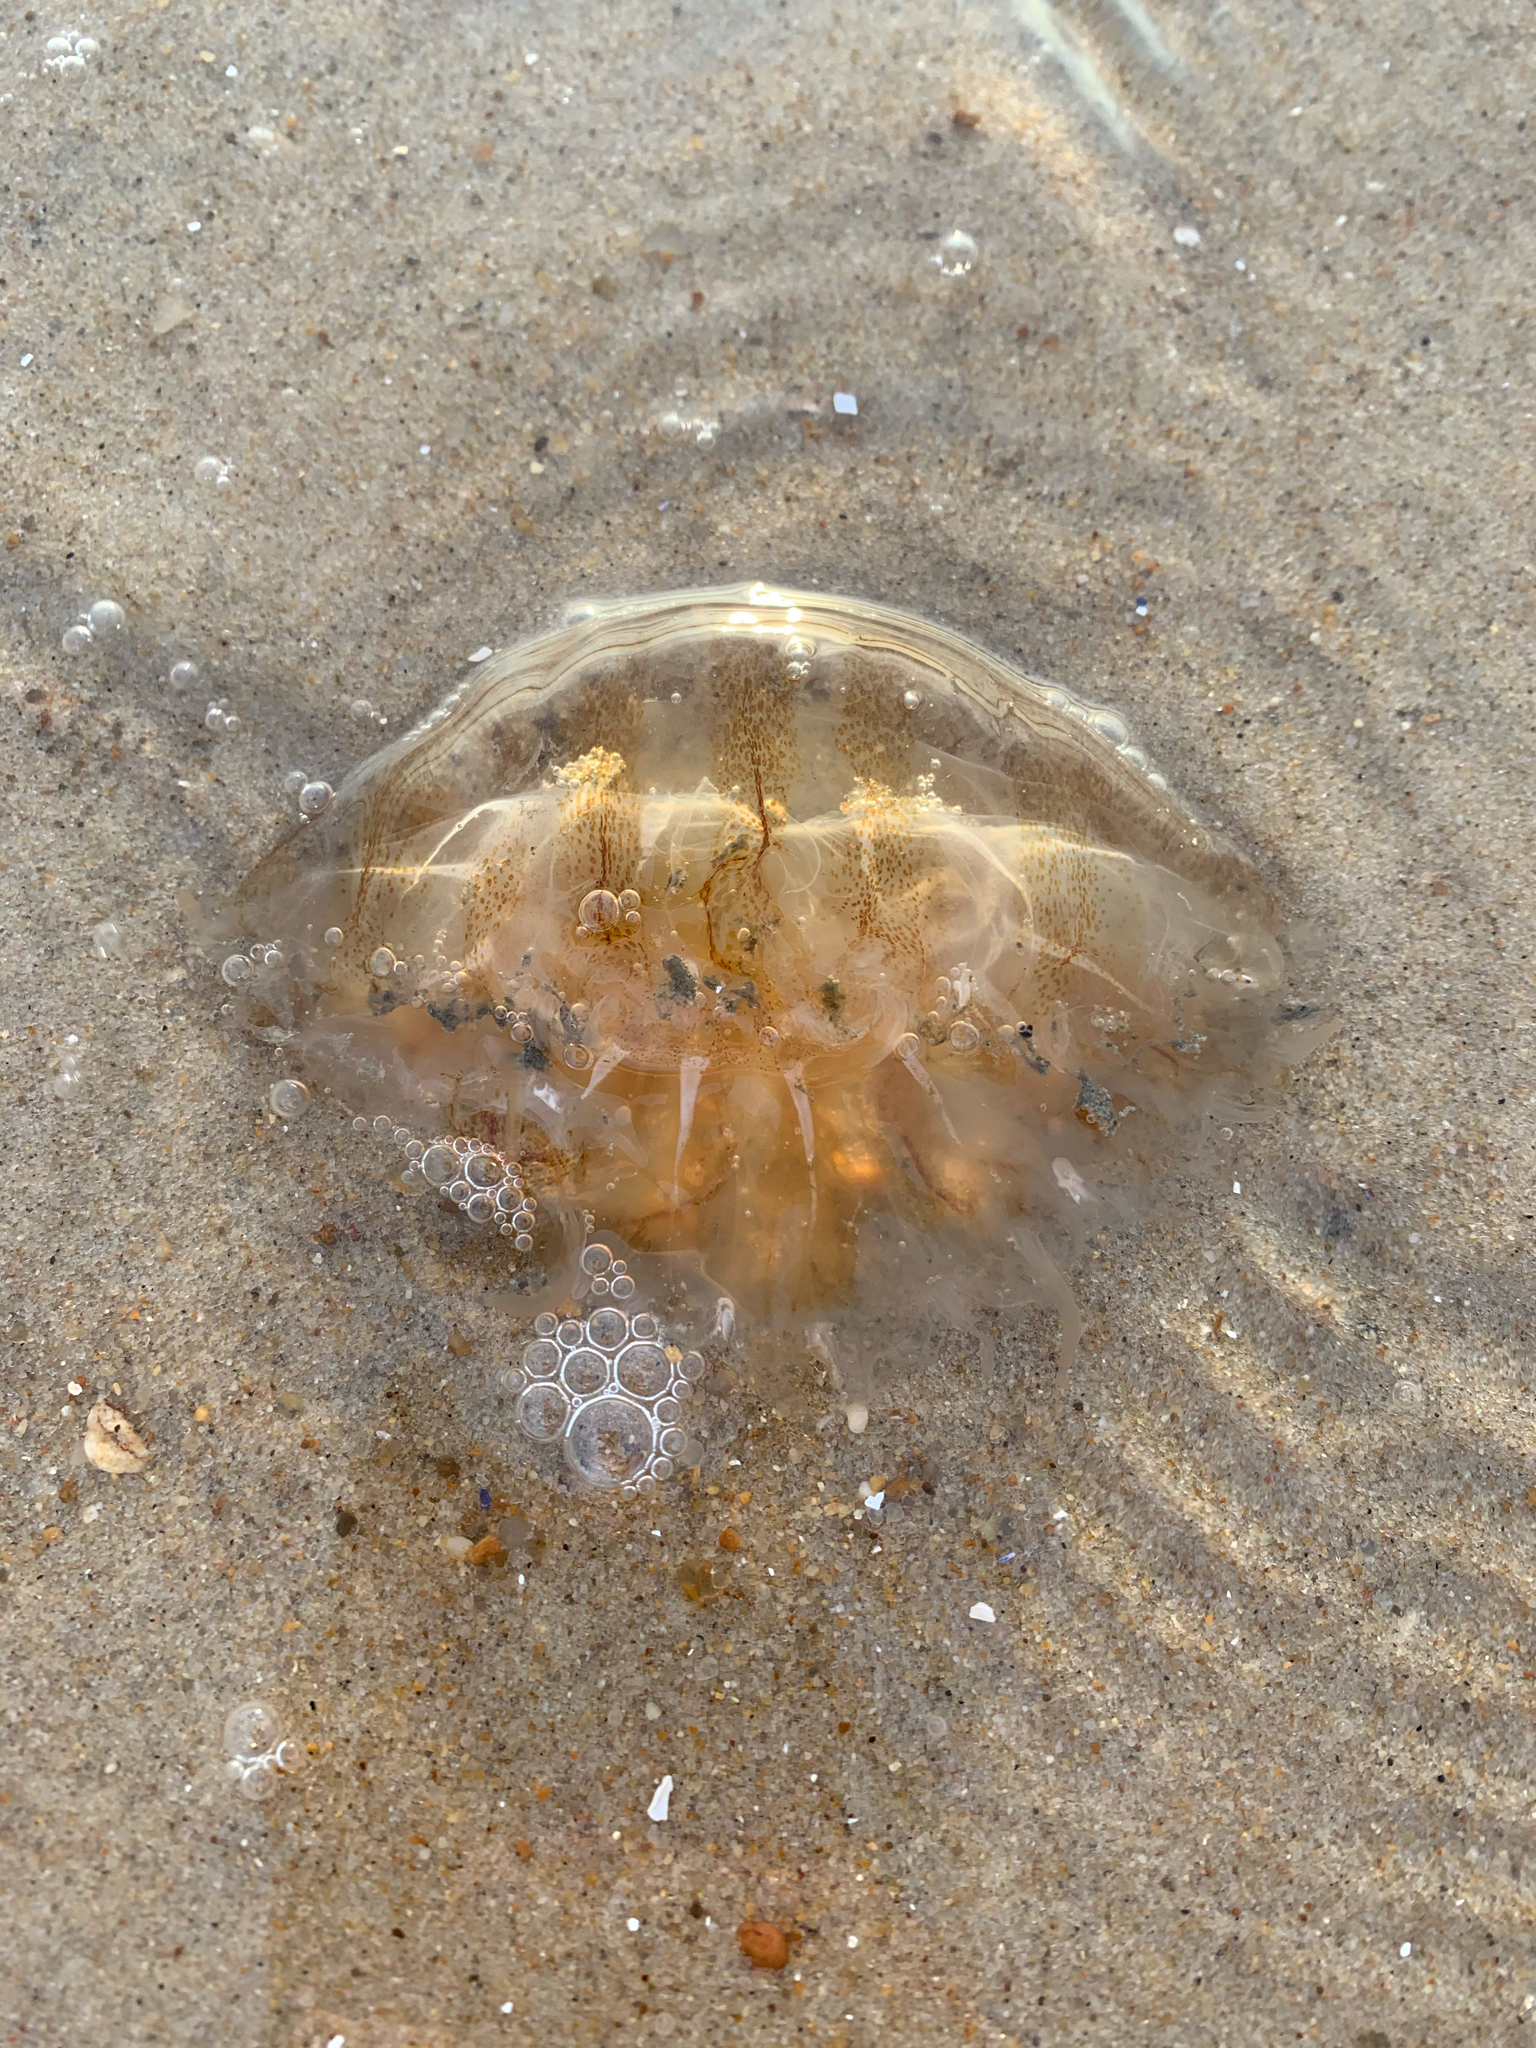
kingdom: Animalia
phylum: Cnidaria
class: Scyphozoa
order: Semaeostomeae
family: Pelagiidae
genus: Chrysaora
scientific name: Chrysaora chesapeakei
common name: Bay nettle
